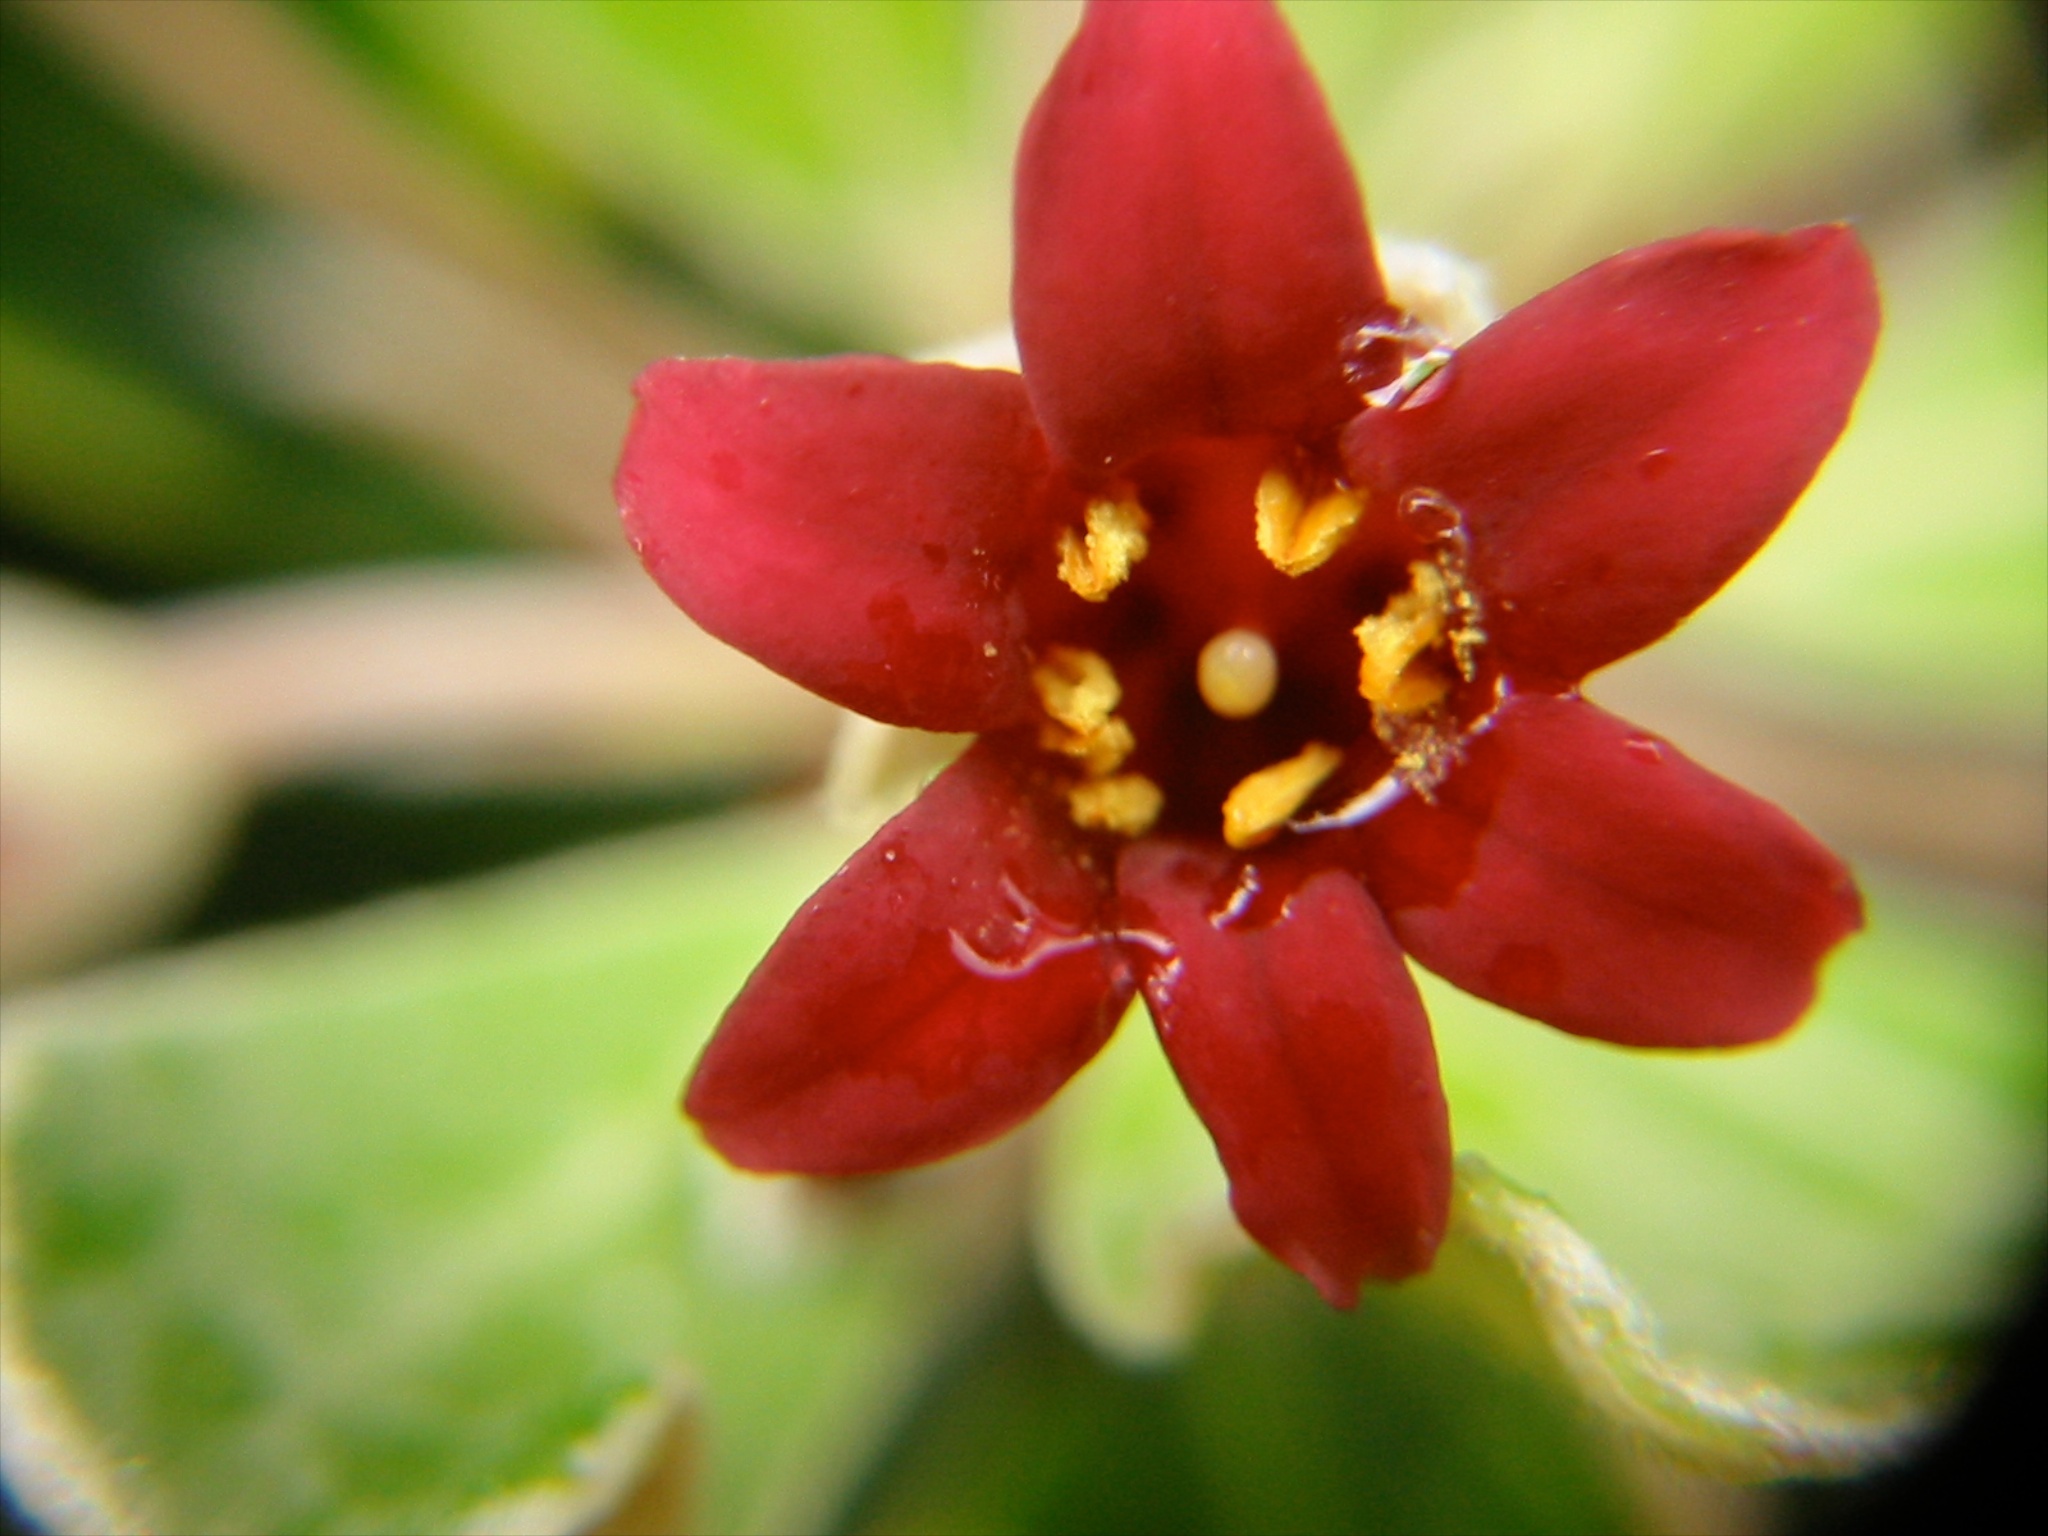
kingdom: Plantae
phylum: Tracheophyta
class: Magnoliopsida
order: Apiales
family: Pittosporaceae
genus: Pittosporum
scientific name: Pittosporum crassifolium
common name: Karo
